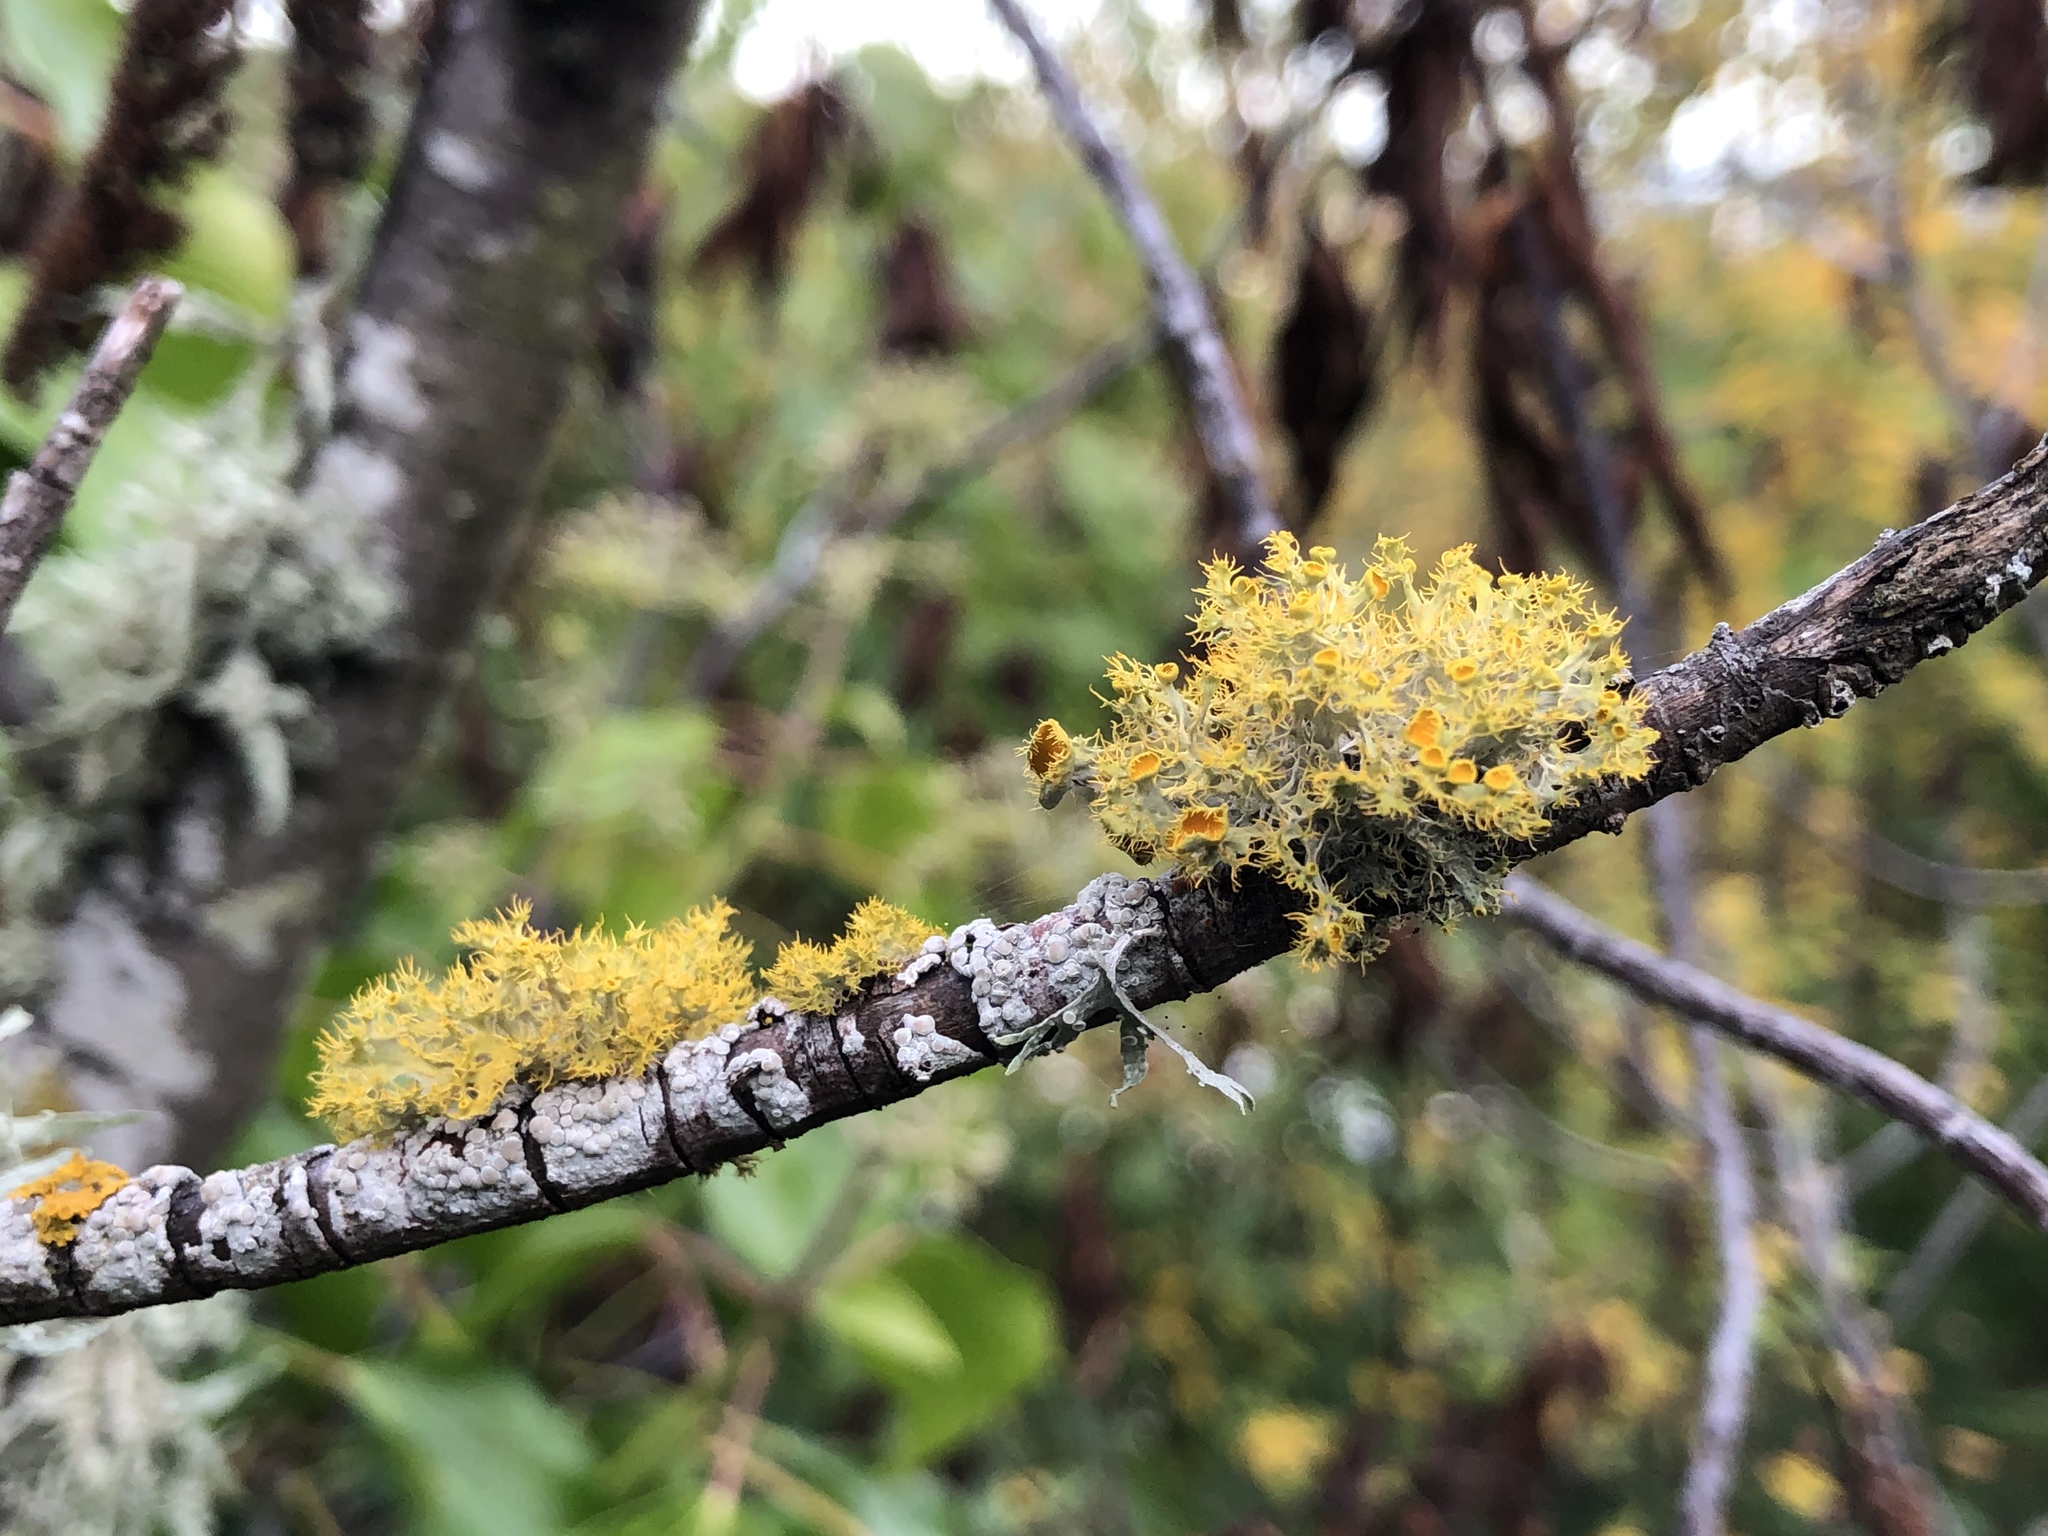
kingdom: Fungi
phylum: Ascomycota
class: Lecanoromycetes
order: Teloschistales
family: Teloschistaceae
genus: Niorma
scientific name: Niorma chrysophthalma
